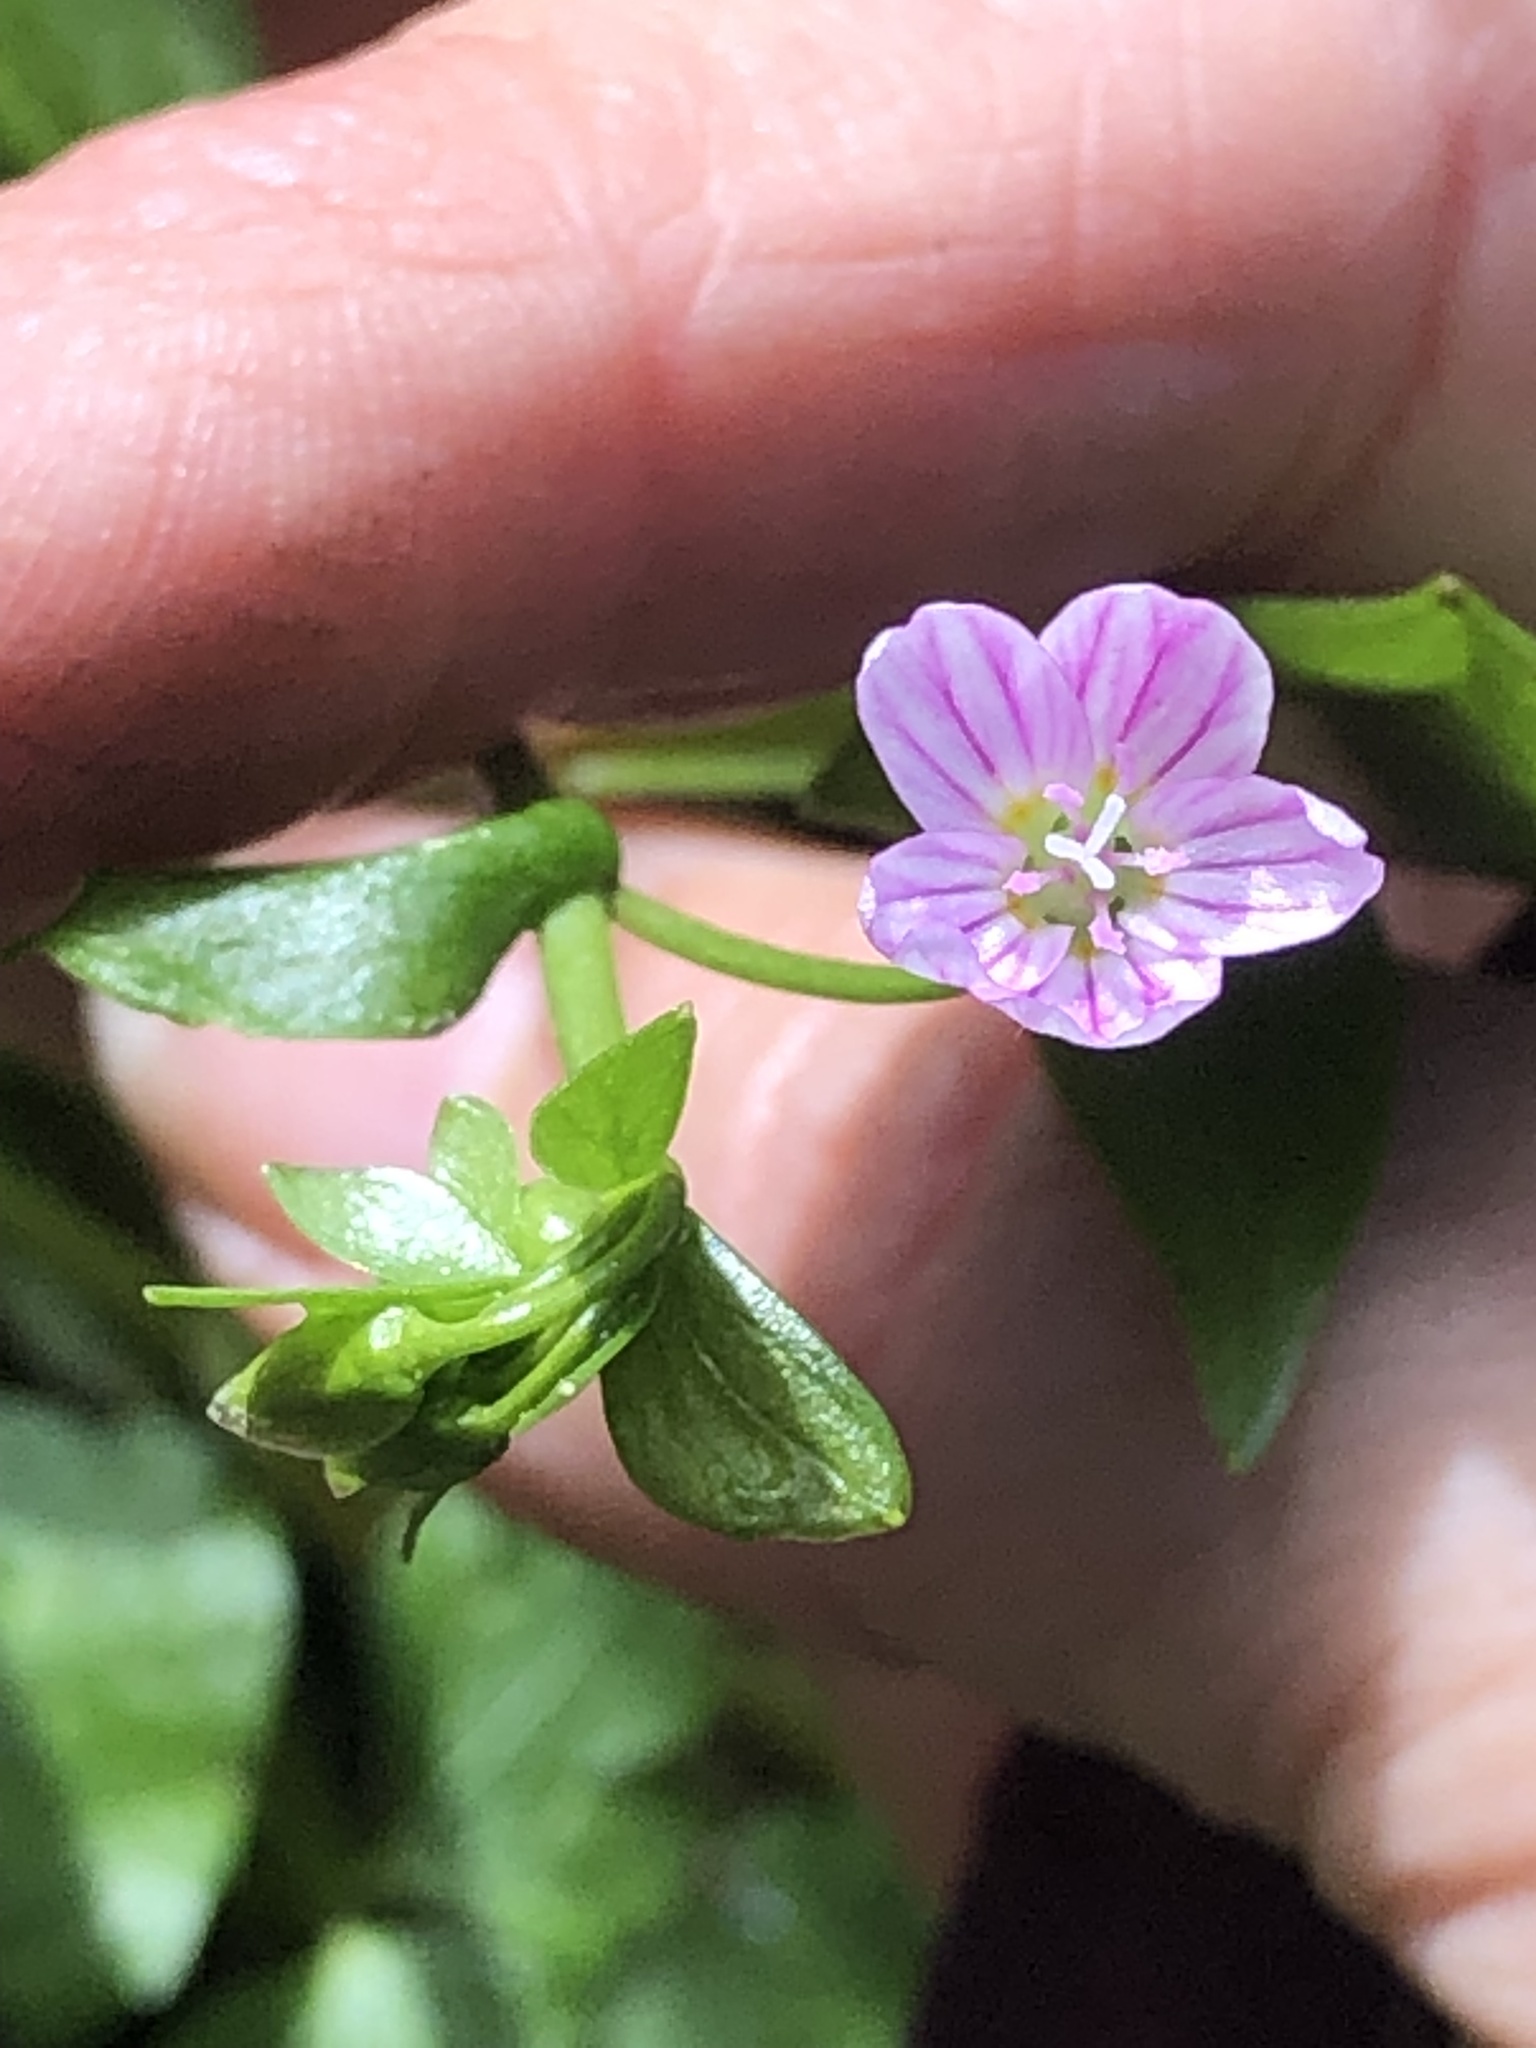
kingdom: Plantae
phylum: Tracheophyta
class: Magnoliopsida
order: Caryophyllales
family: Montiaceae
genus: Claytonia
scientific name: Claytonia sibirica
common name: Pink purslane
